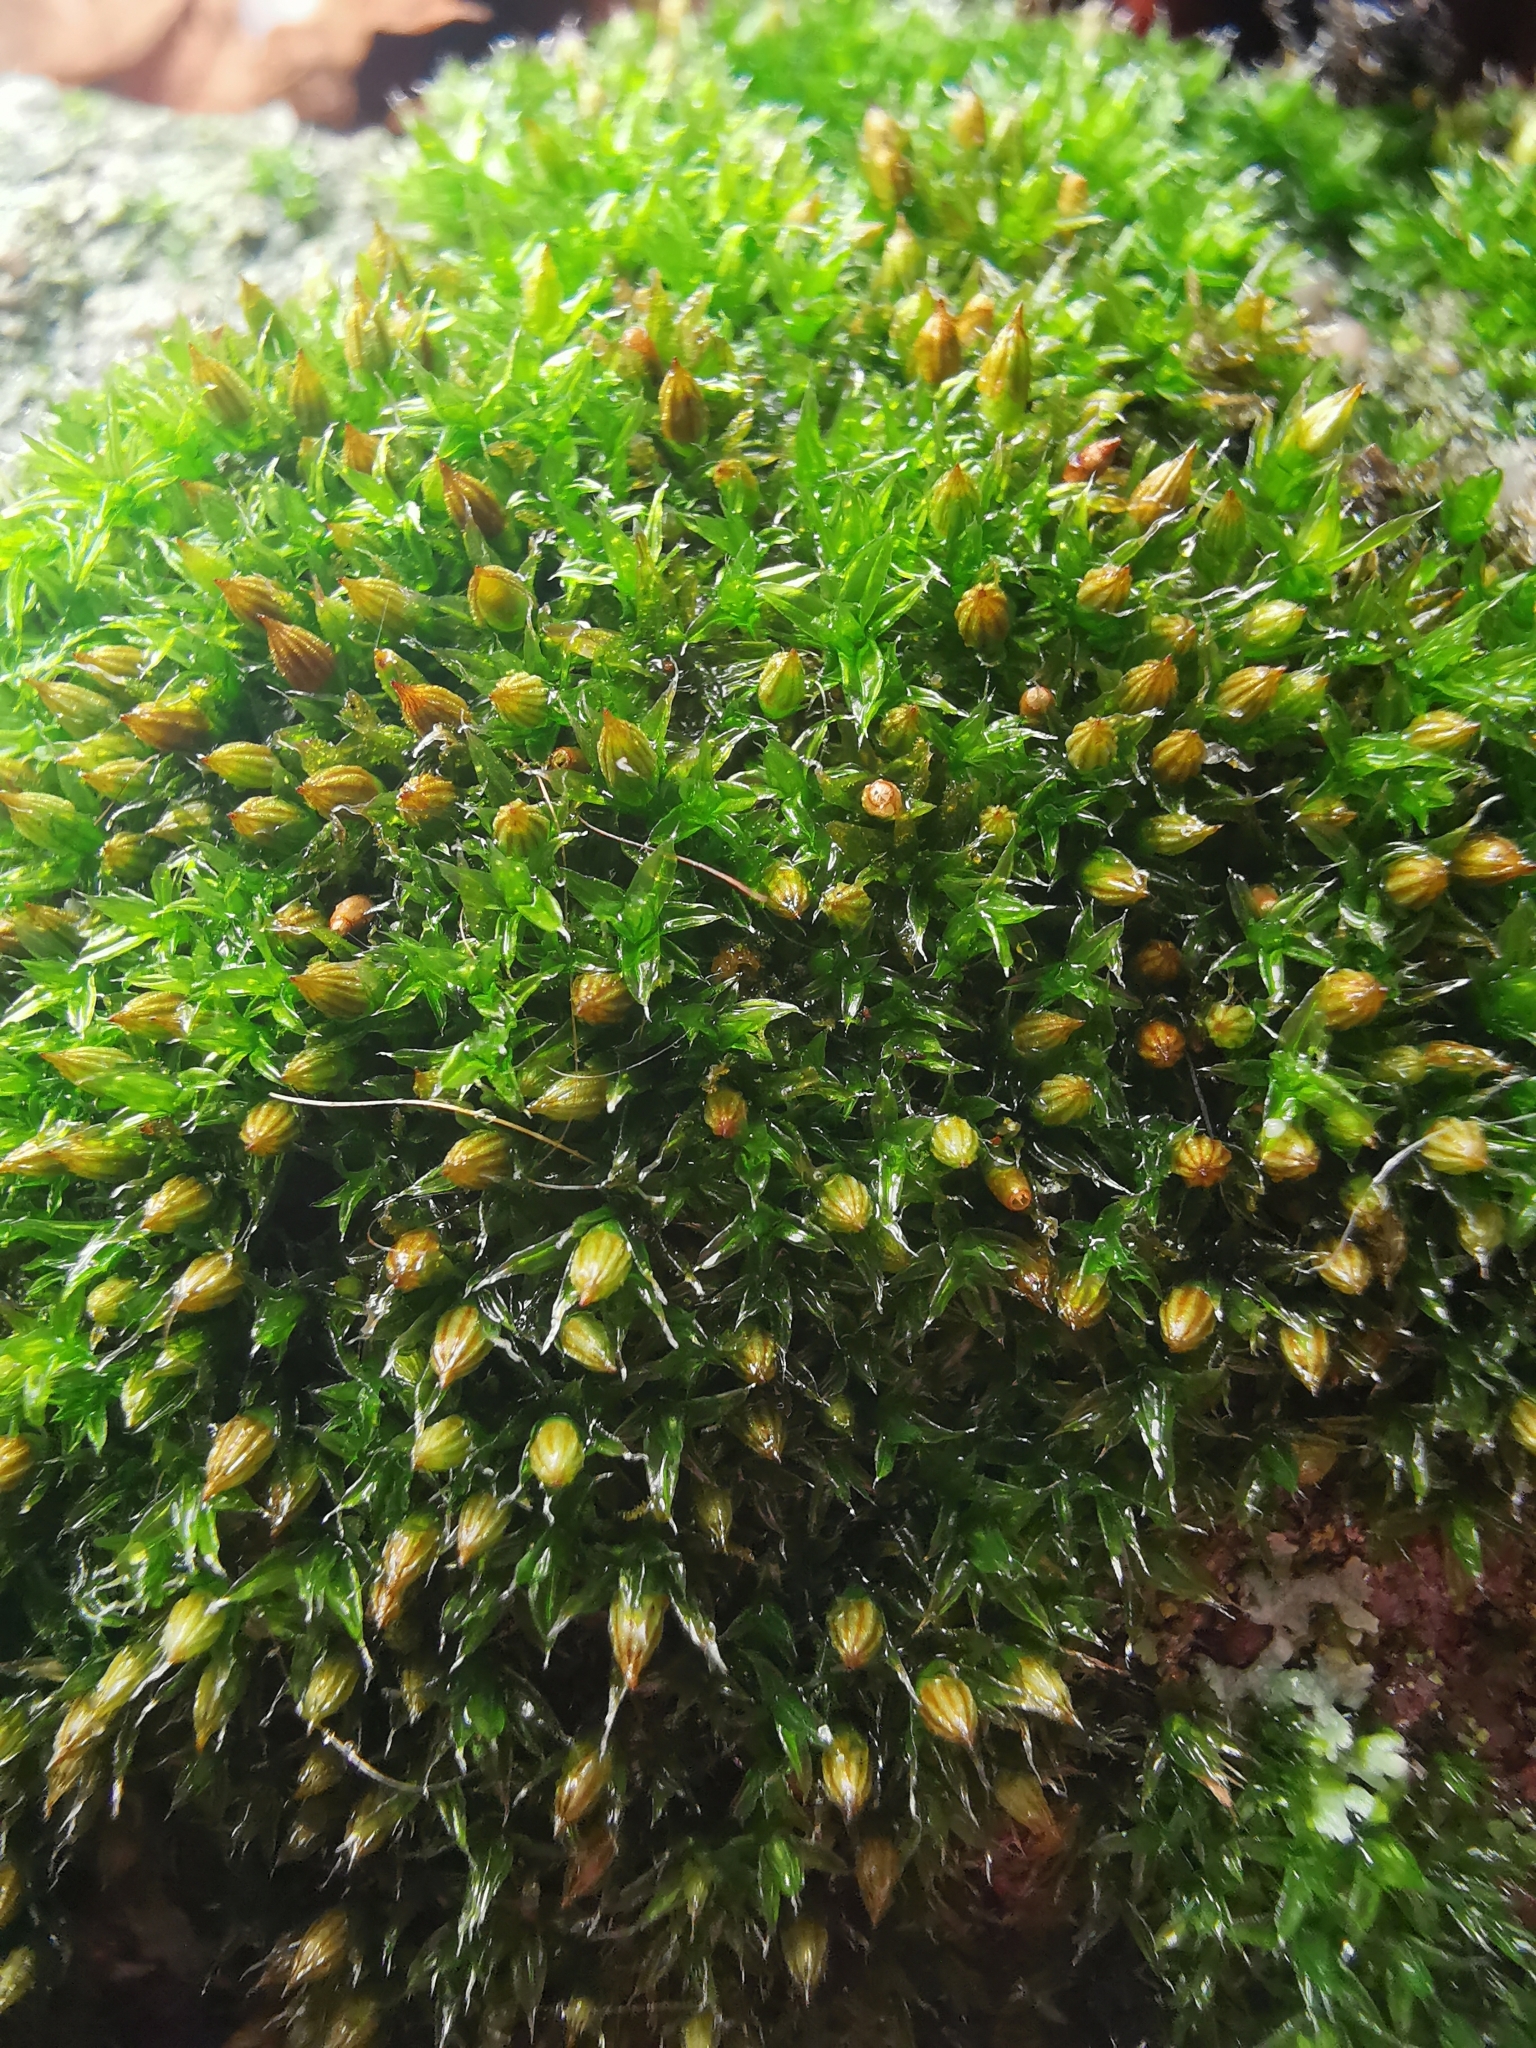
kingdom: Plantae
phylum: Bryophyta
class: Bryopsida
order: Orthotrichales
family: Orthotrichaceae
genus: Orthotrichum
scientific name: Orthotrichum diaphanum
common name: White-tipped bristle-moss
